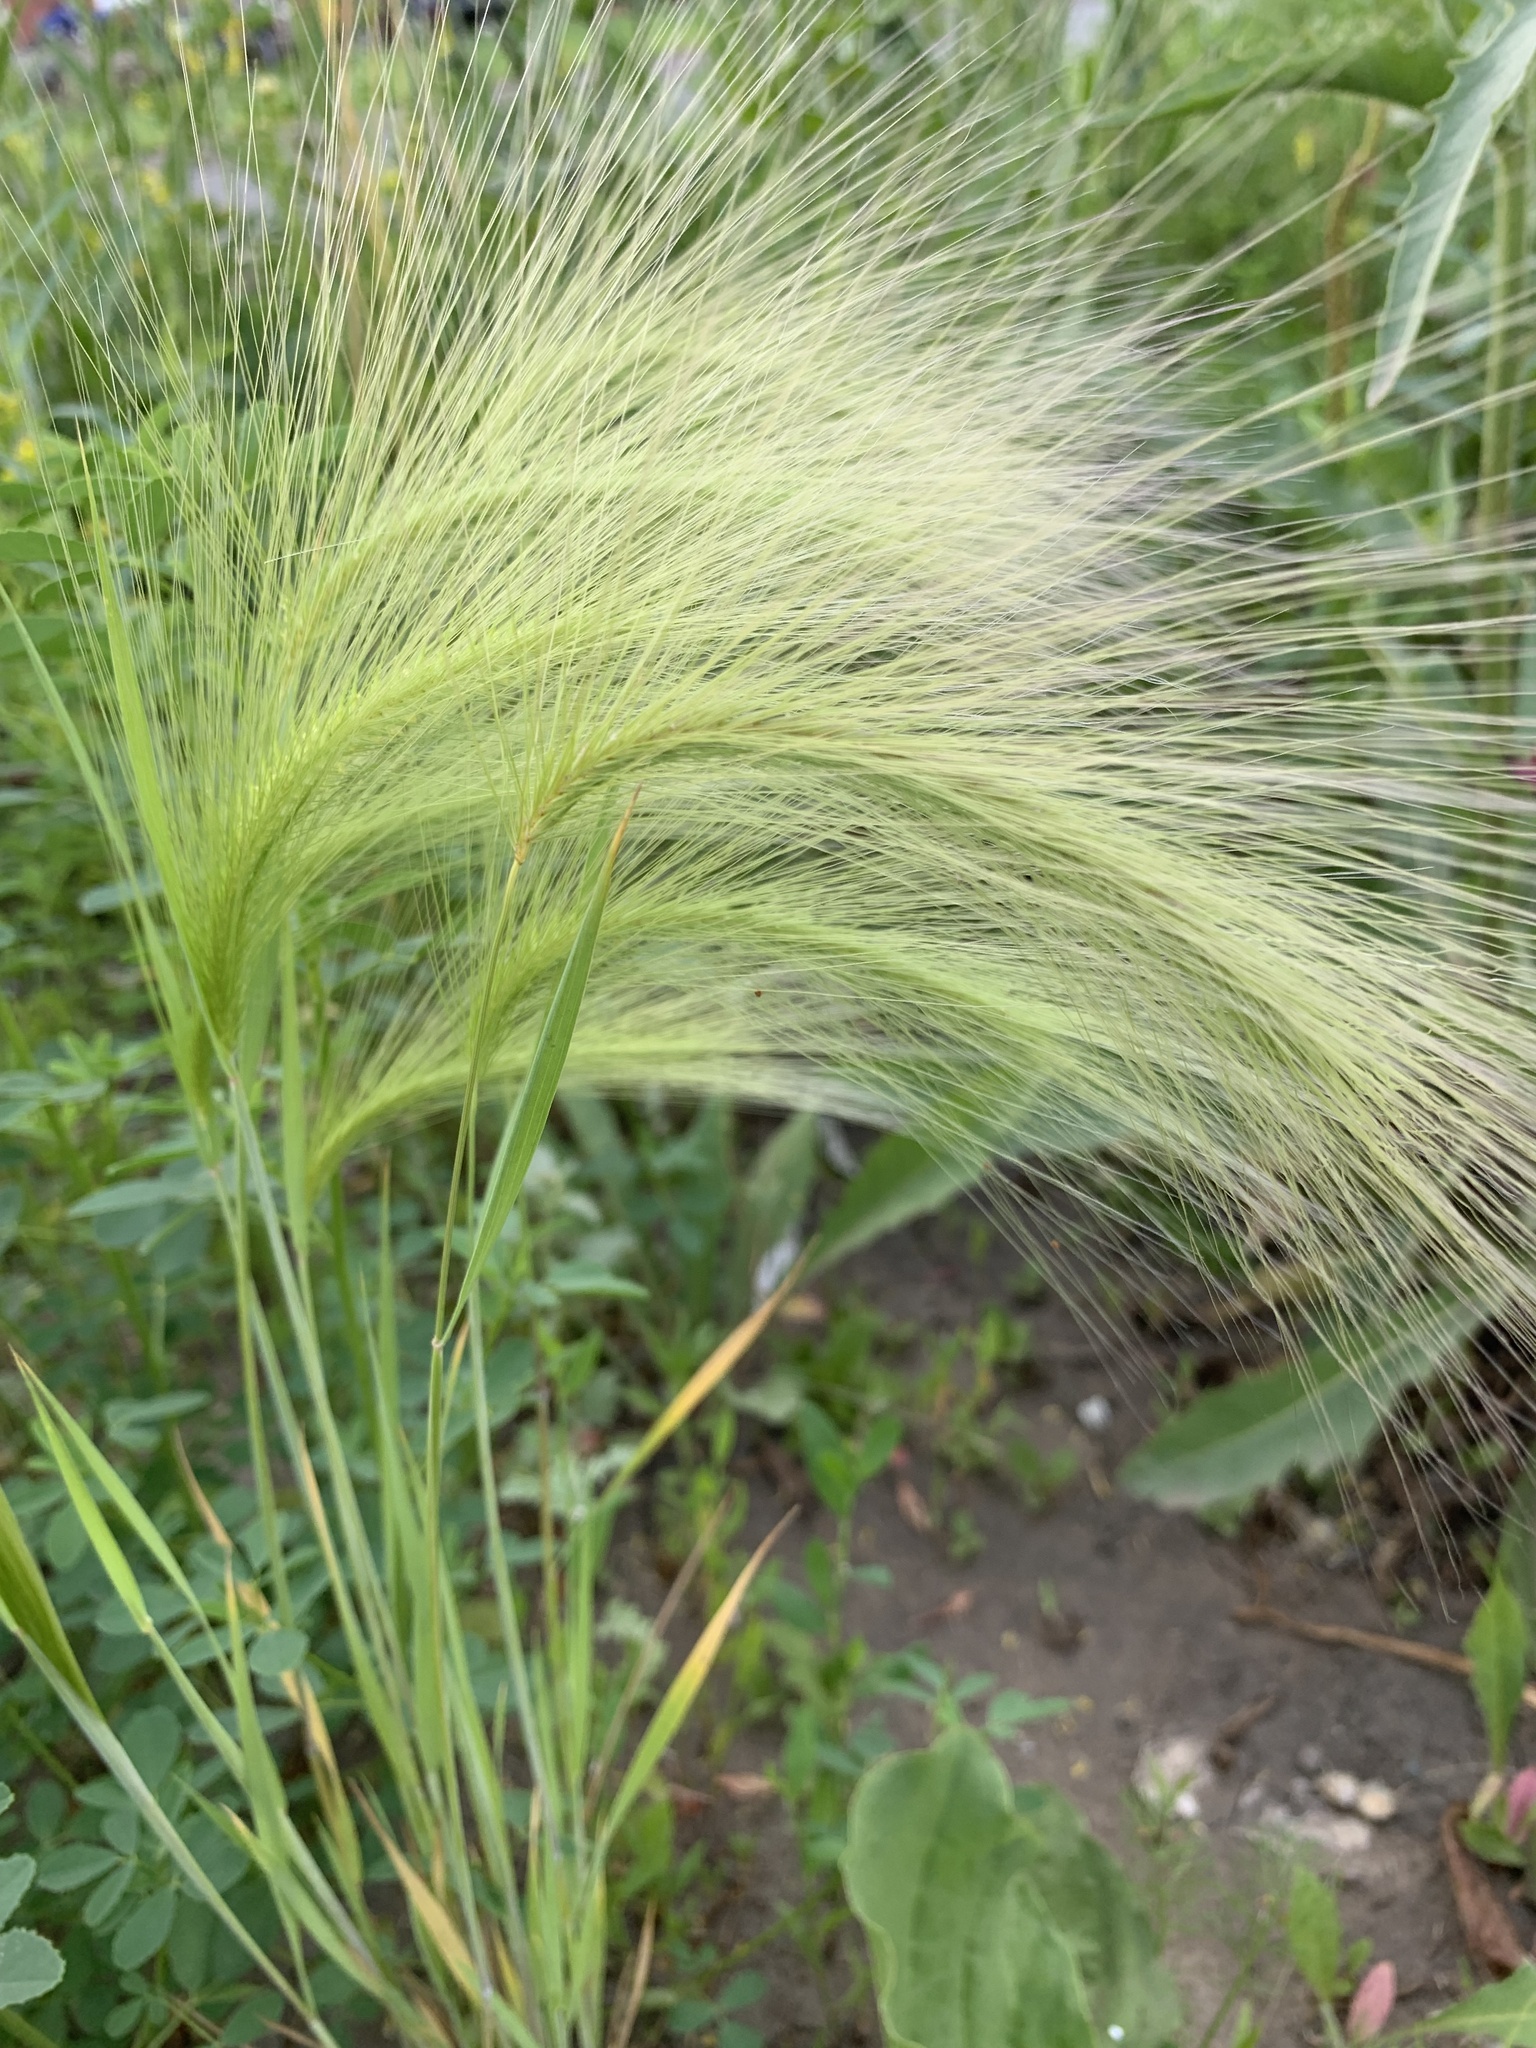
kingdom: Plantae
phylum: Tracheophyta
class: Liliopsida
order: Poales
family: Poaceae
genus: Hordeum
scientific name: Hordeum jubatum
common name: Foxtail barley
